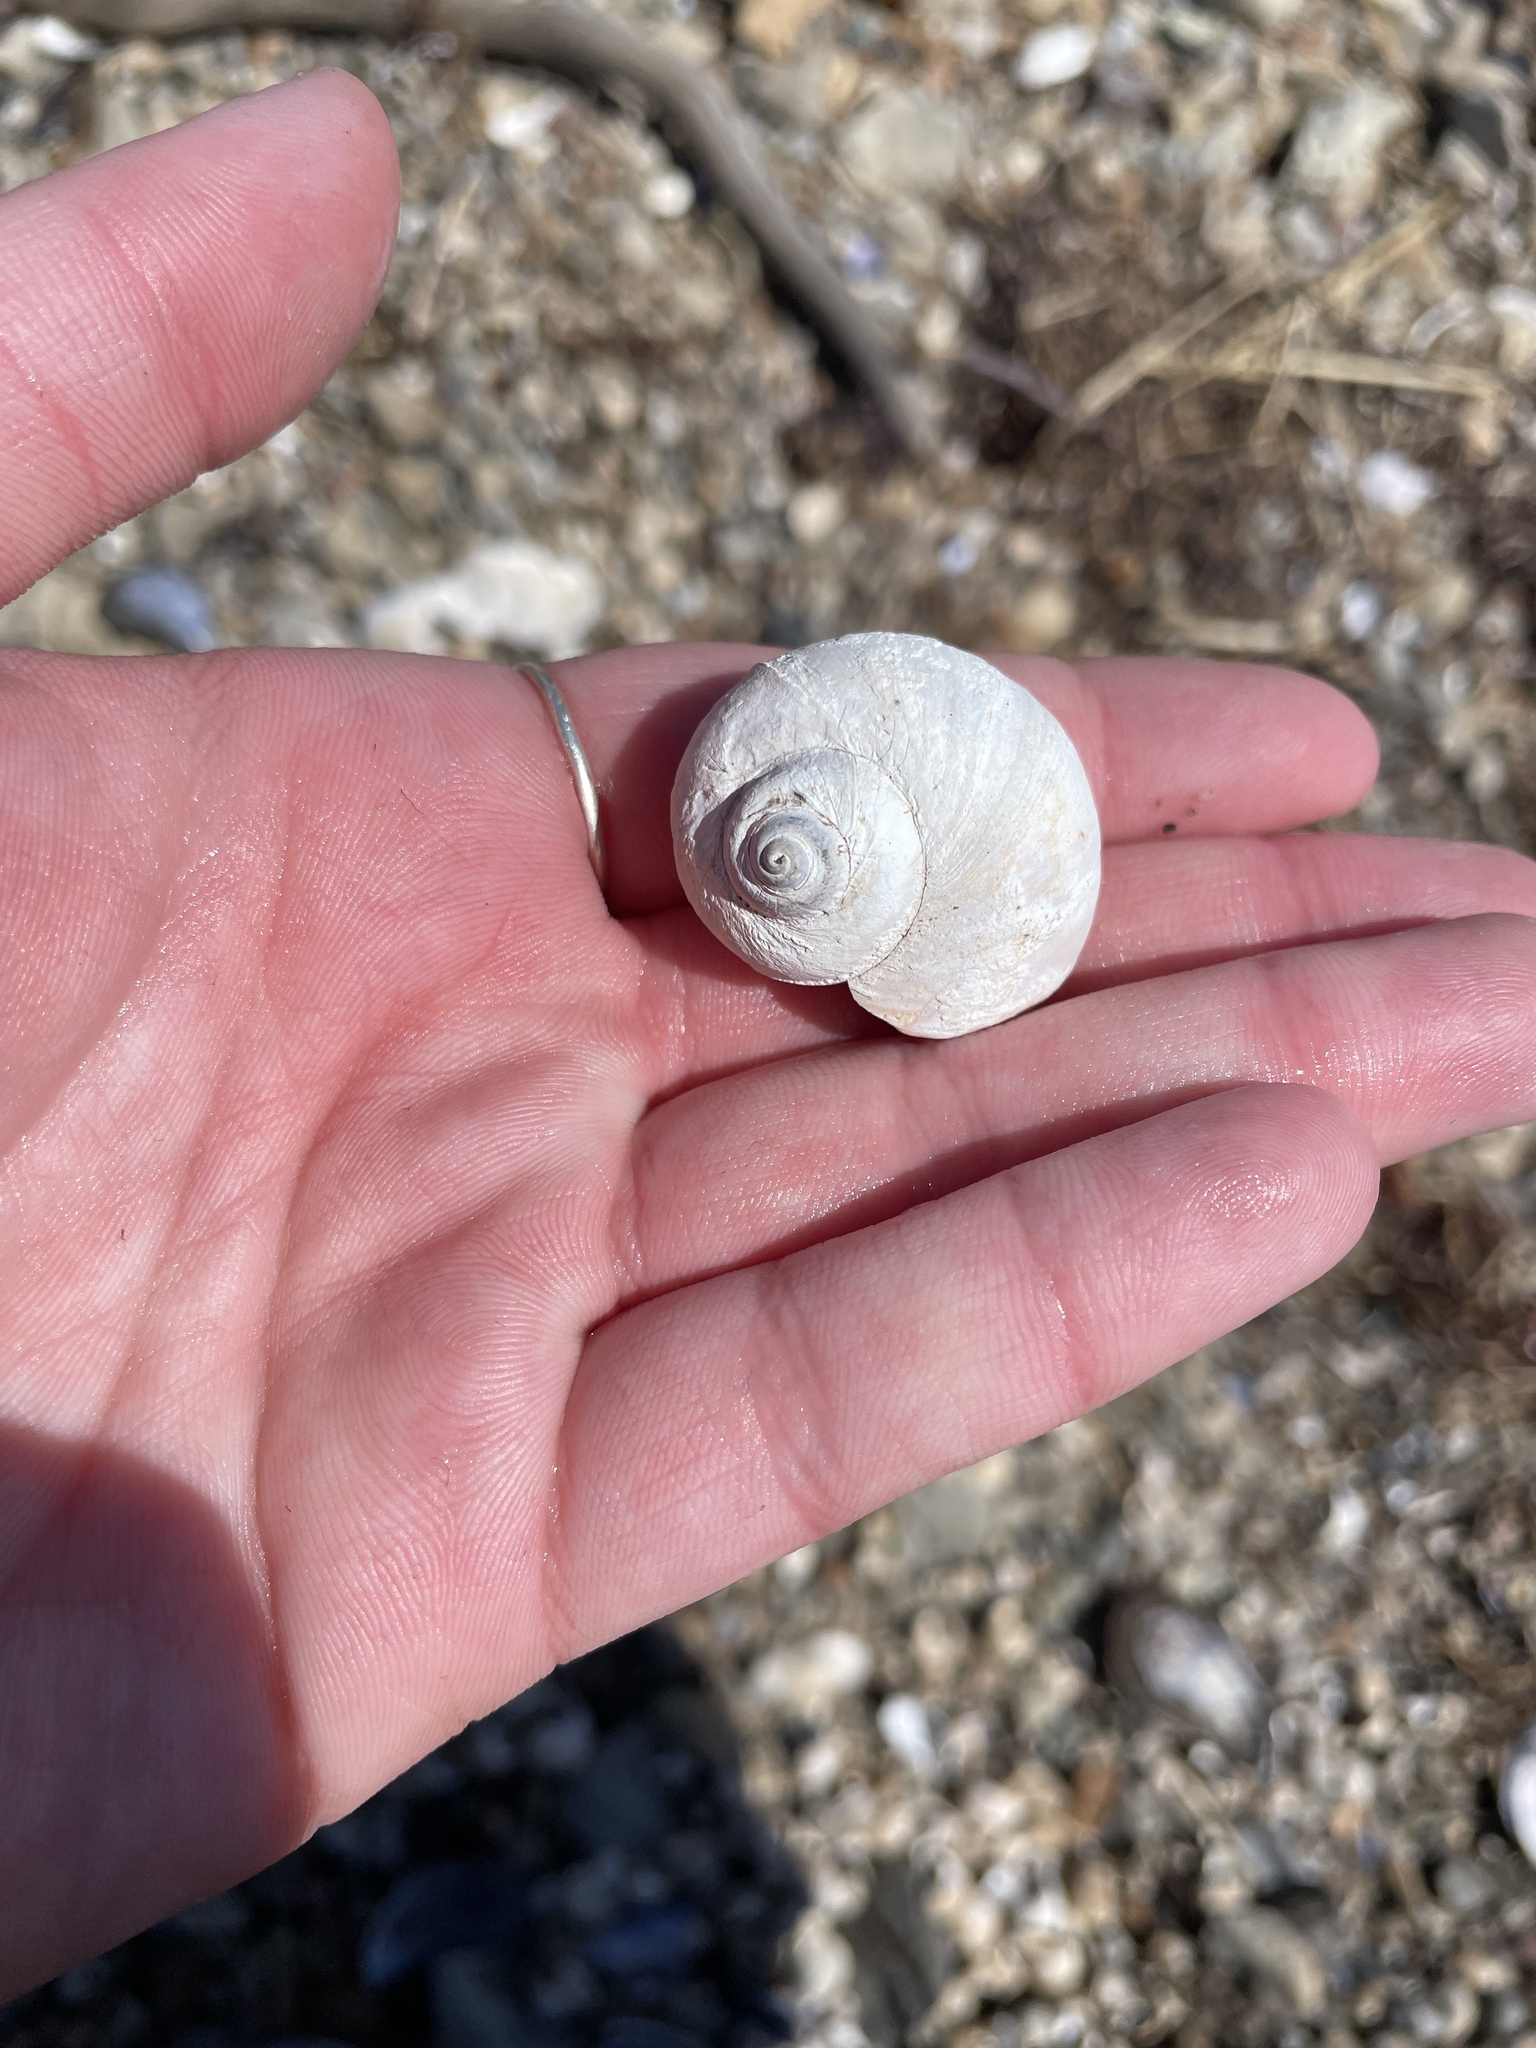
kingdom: Animalia
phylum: Mollusca
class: Gastropoda
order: Littorinimorpha
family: Naticidae
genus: Euspira
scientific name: Euspira heros
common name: Common northern moonsnail
